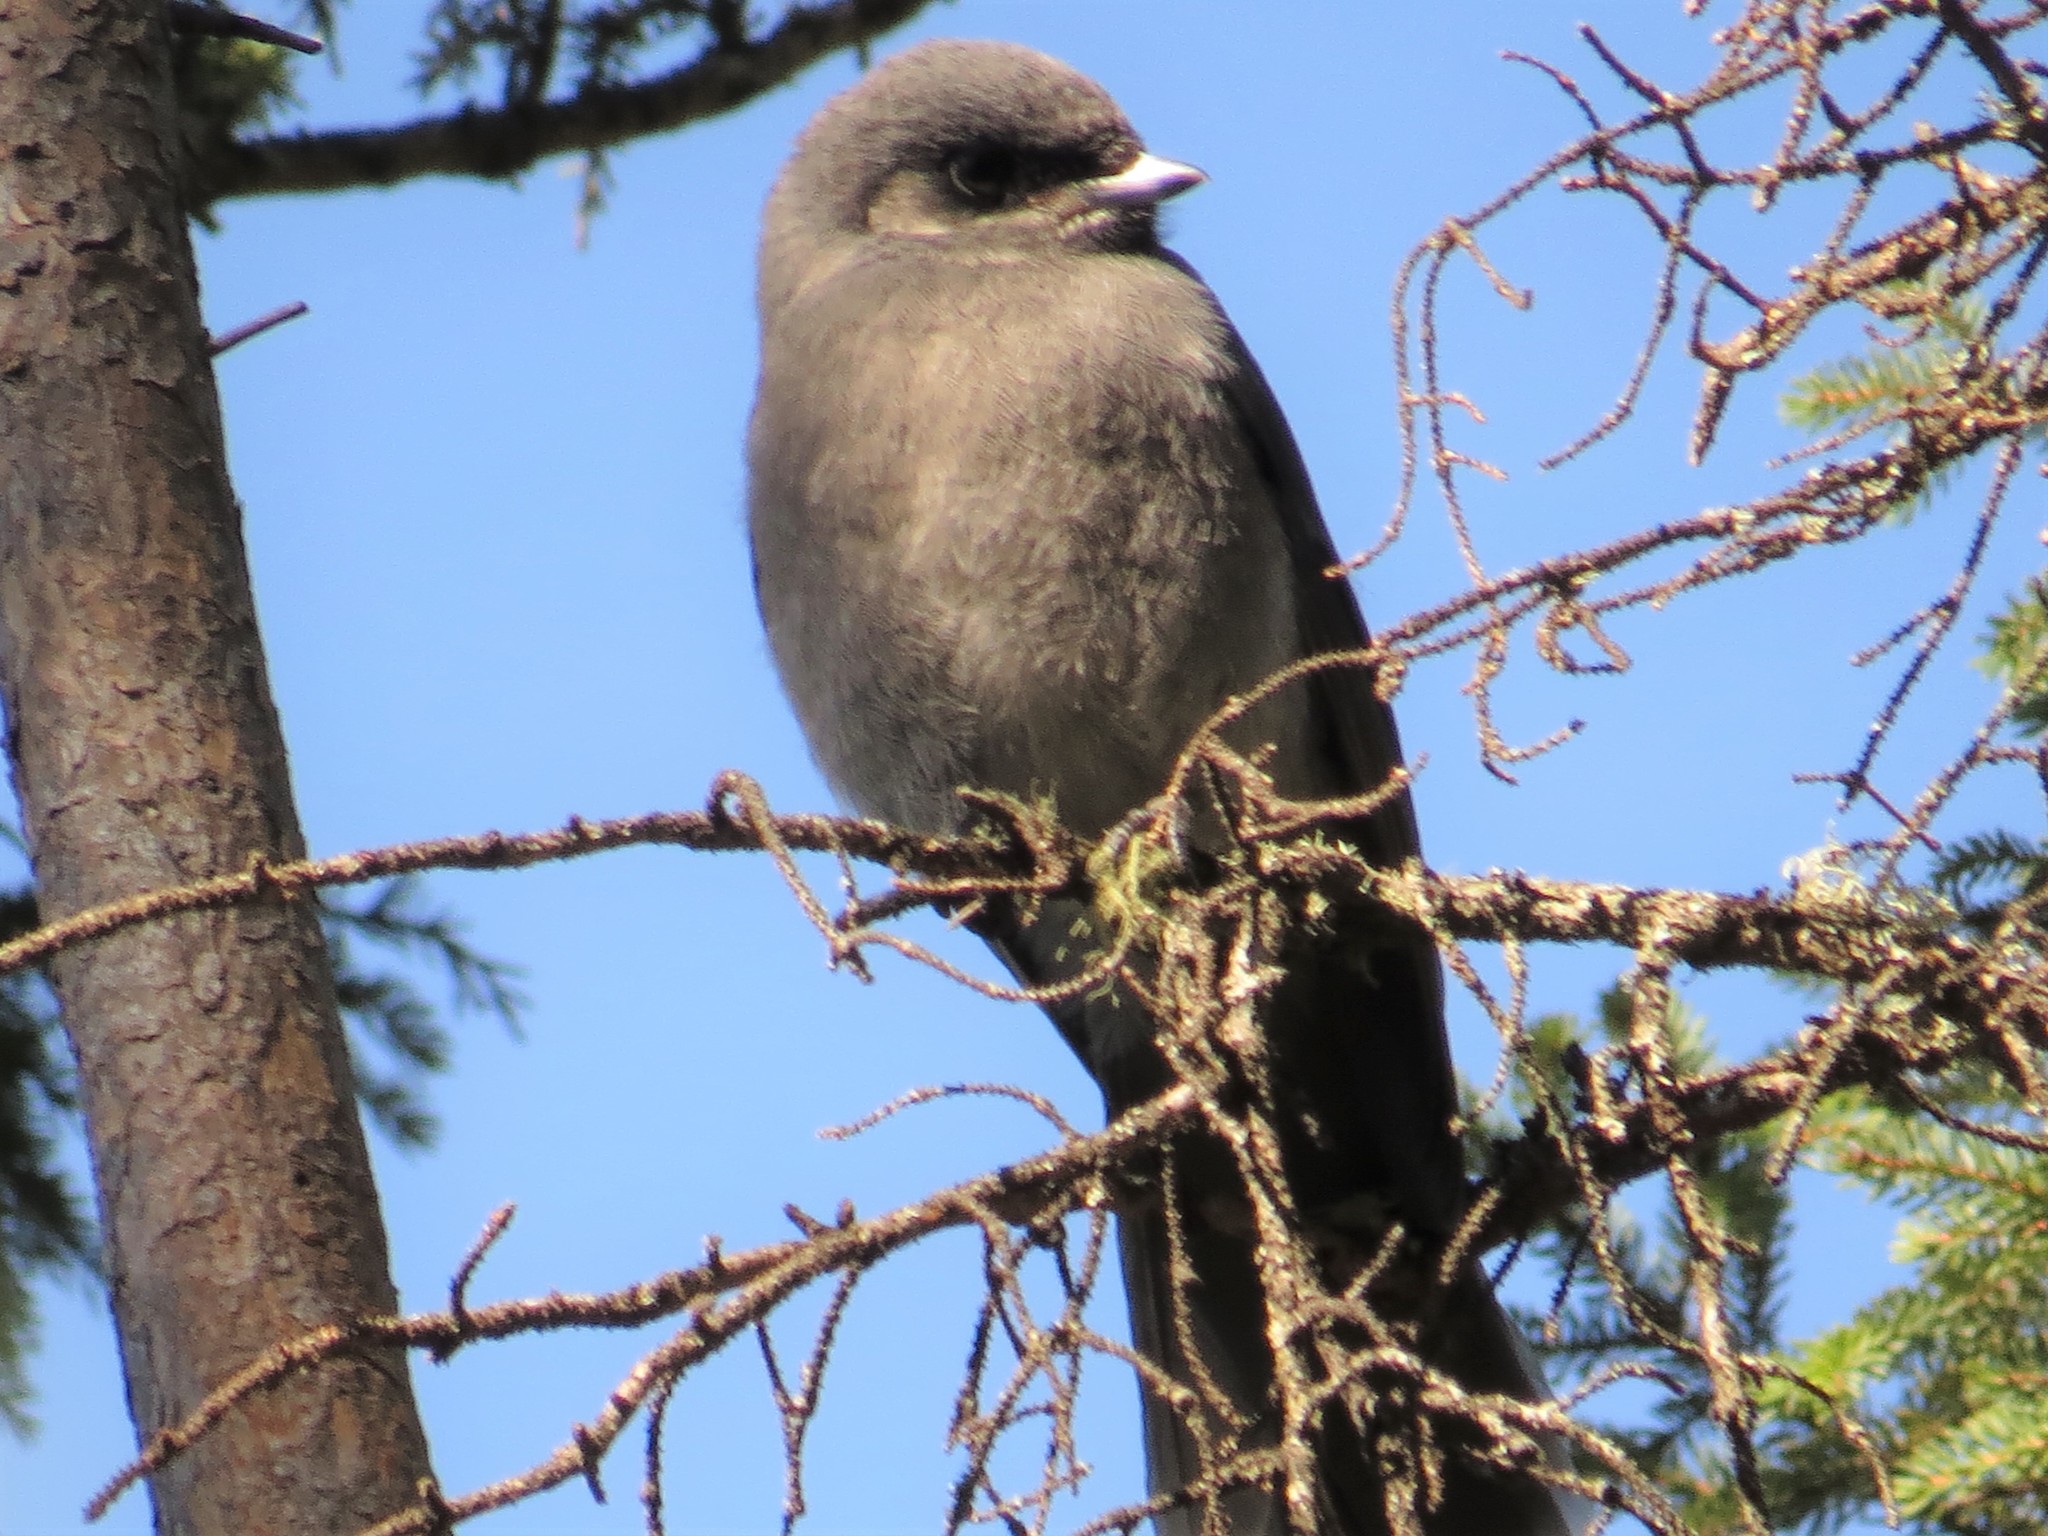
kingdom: Animalia
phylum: Chordata
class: Aves
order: Passeriformes
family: Corvidae
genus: Perisoreus
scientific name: Perisoreus canadensis
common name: Gray jay
